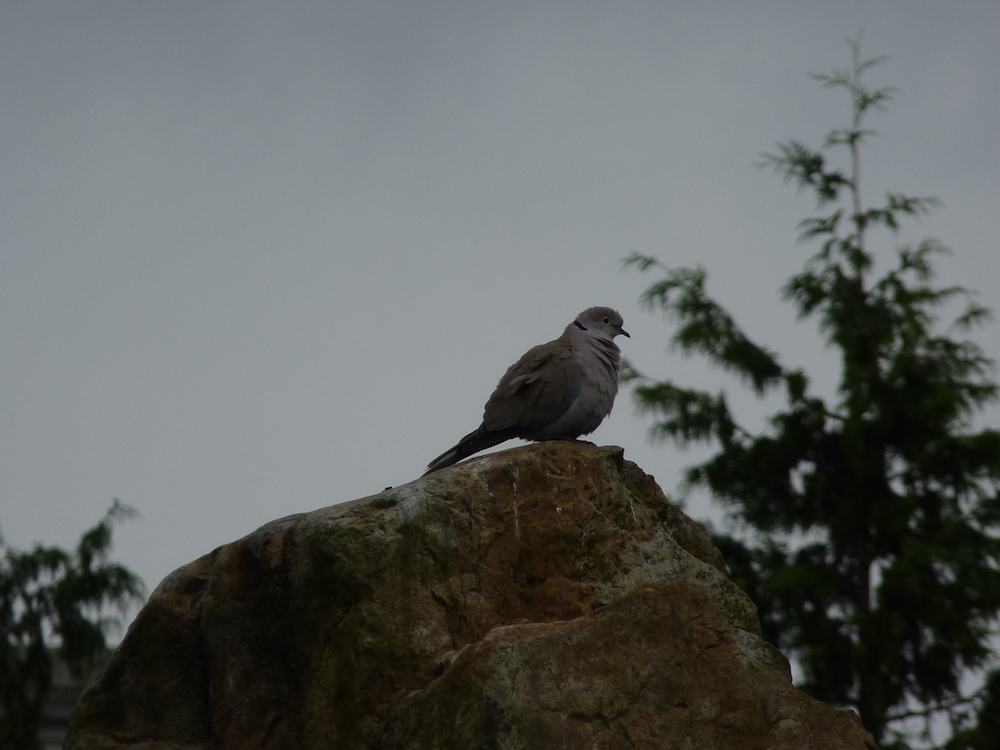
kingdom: Animalia
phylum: Chordata
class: Aves
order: Columbiformes
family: Columbidae
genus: Streptopelia
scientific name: Streptopelia decaocto
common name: Eurasian collared dove
